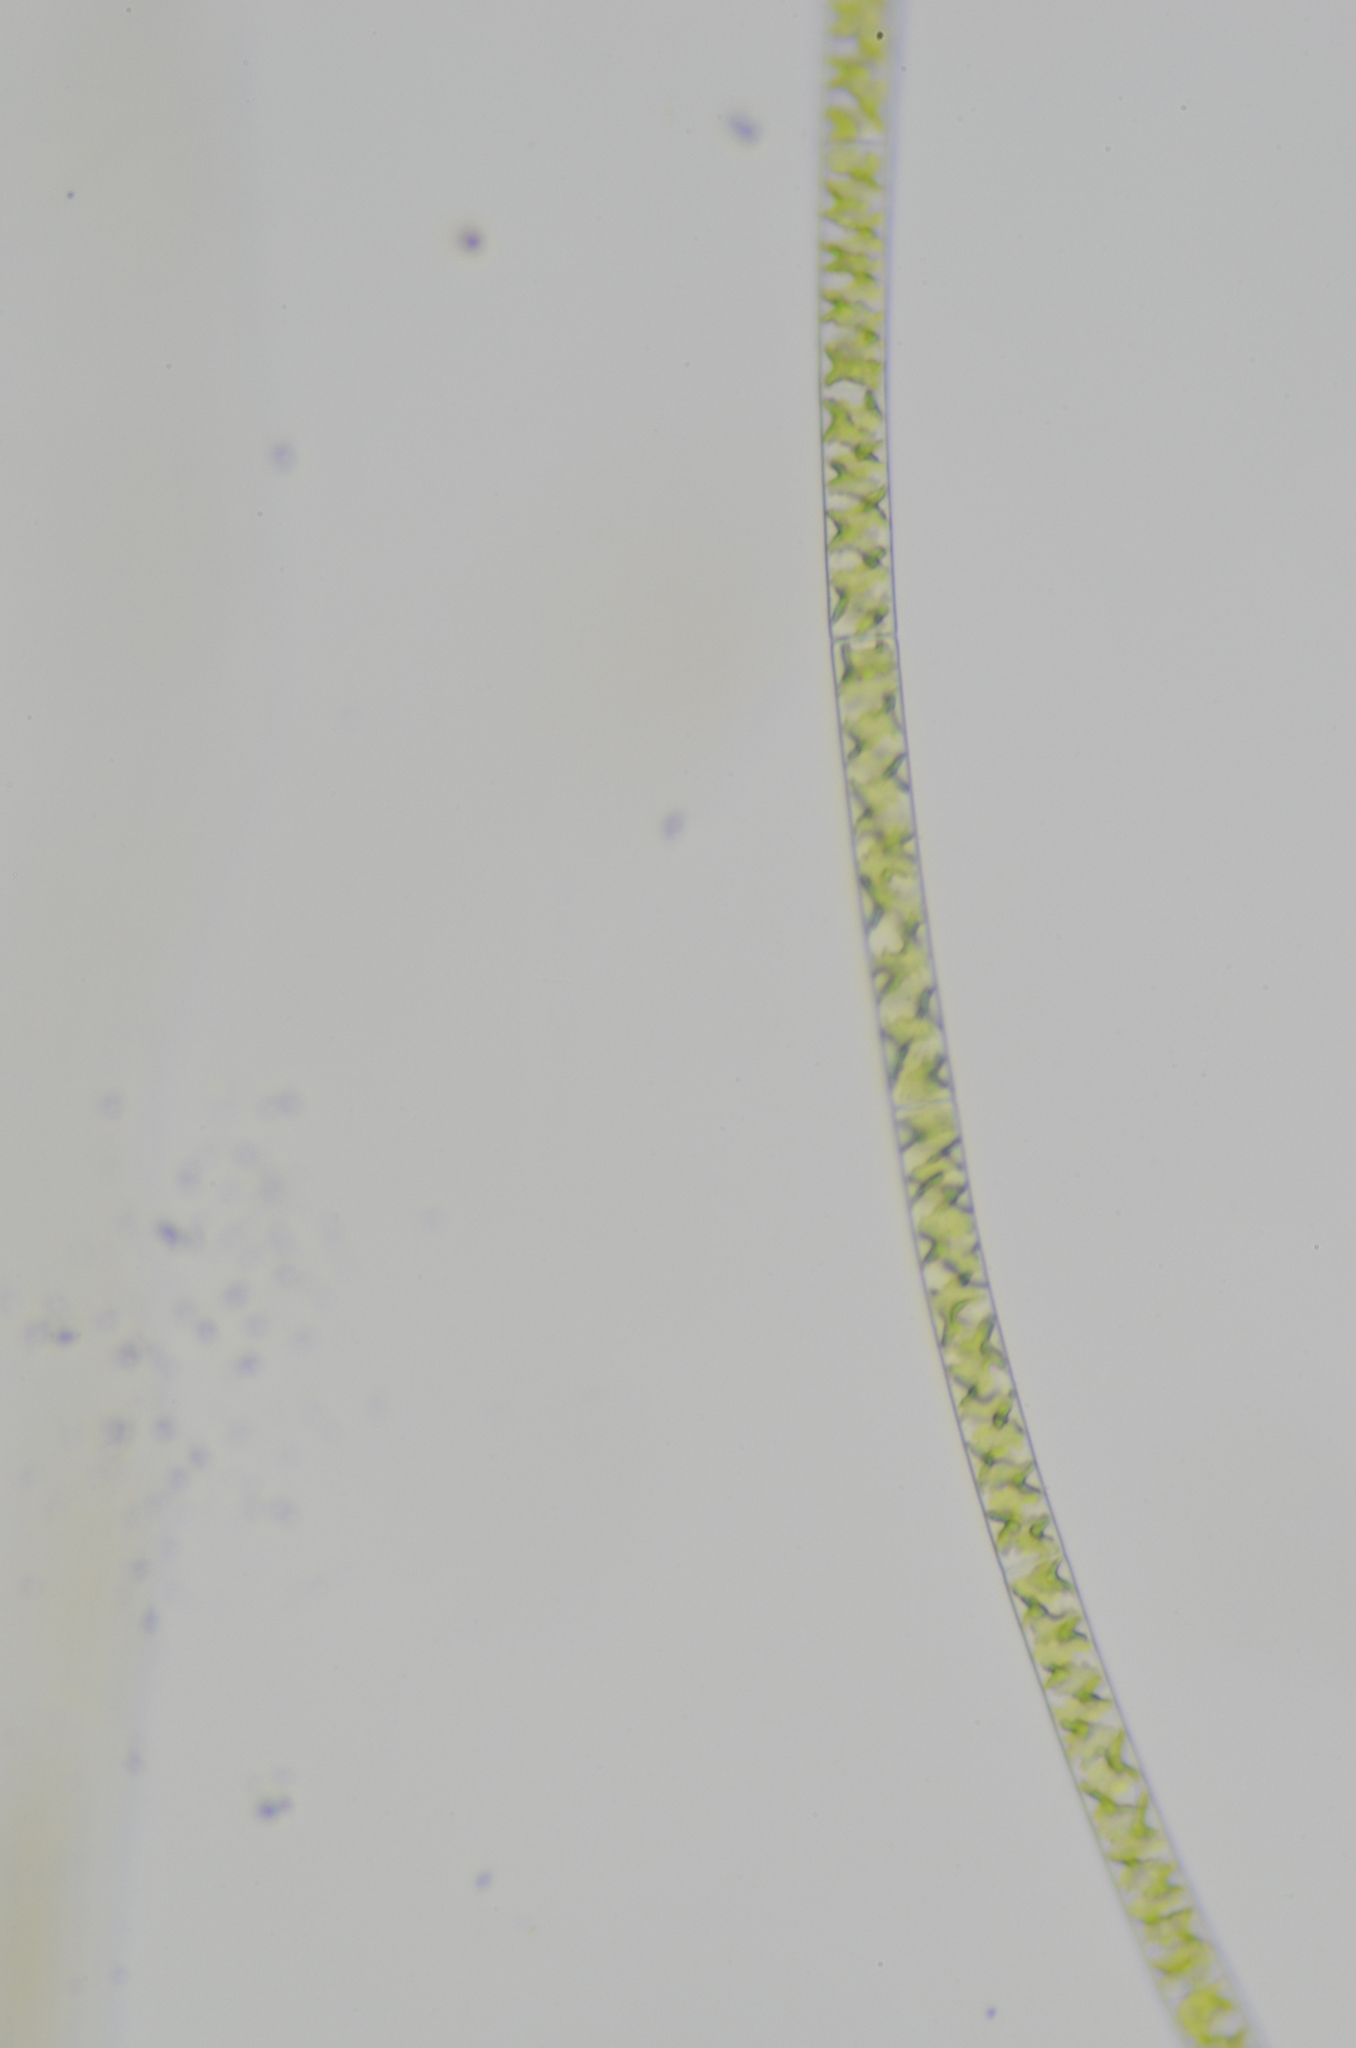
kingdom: Plantae
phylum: Charophyta
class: Zygnematophyceae
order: Zygnematales
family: Zygnemataceae
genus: Spirogyra
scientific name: Spirogyra
